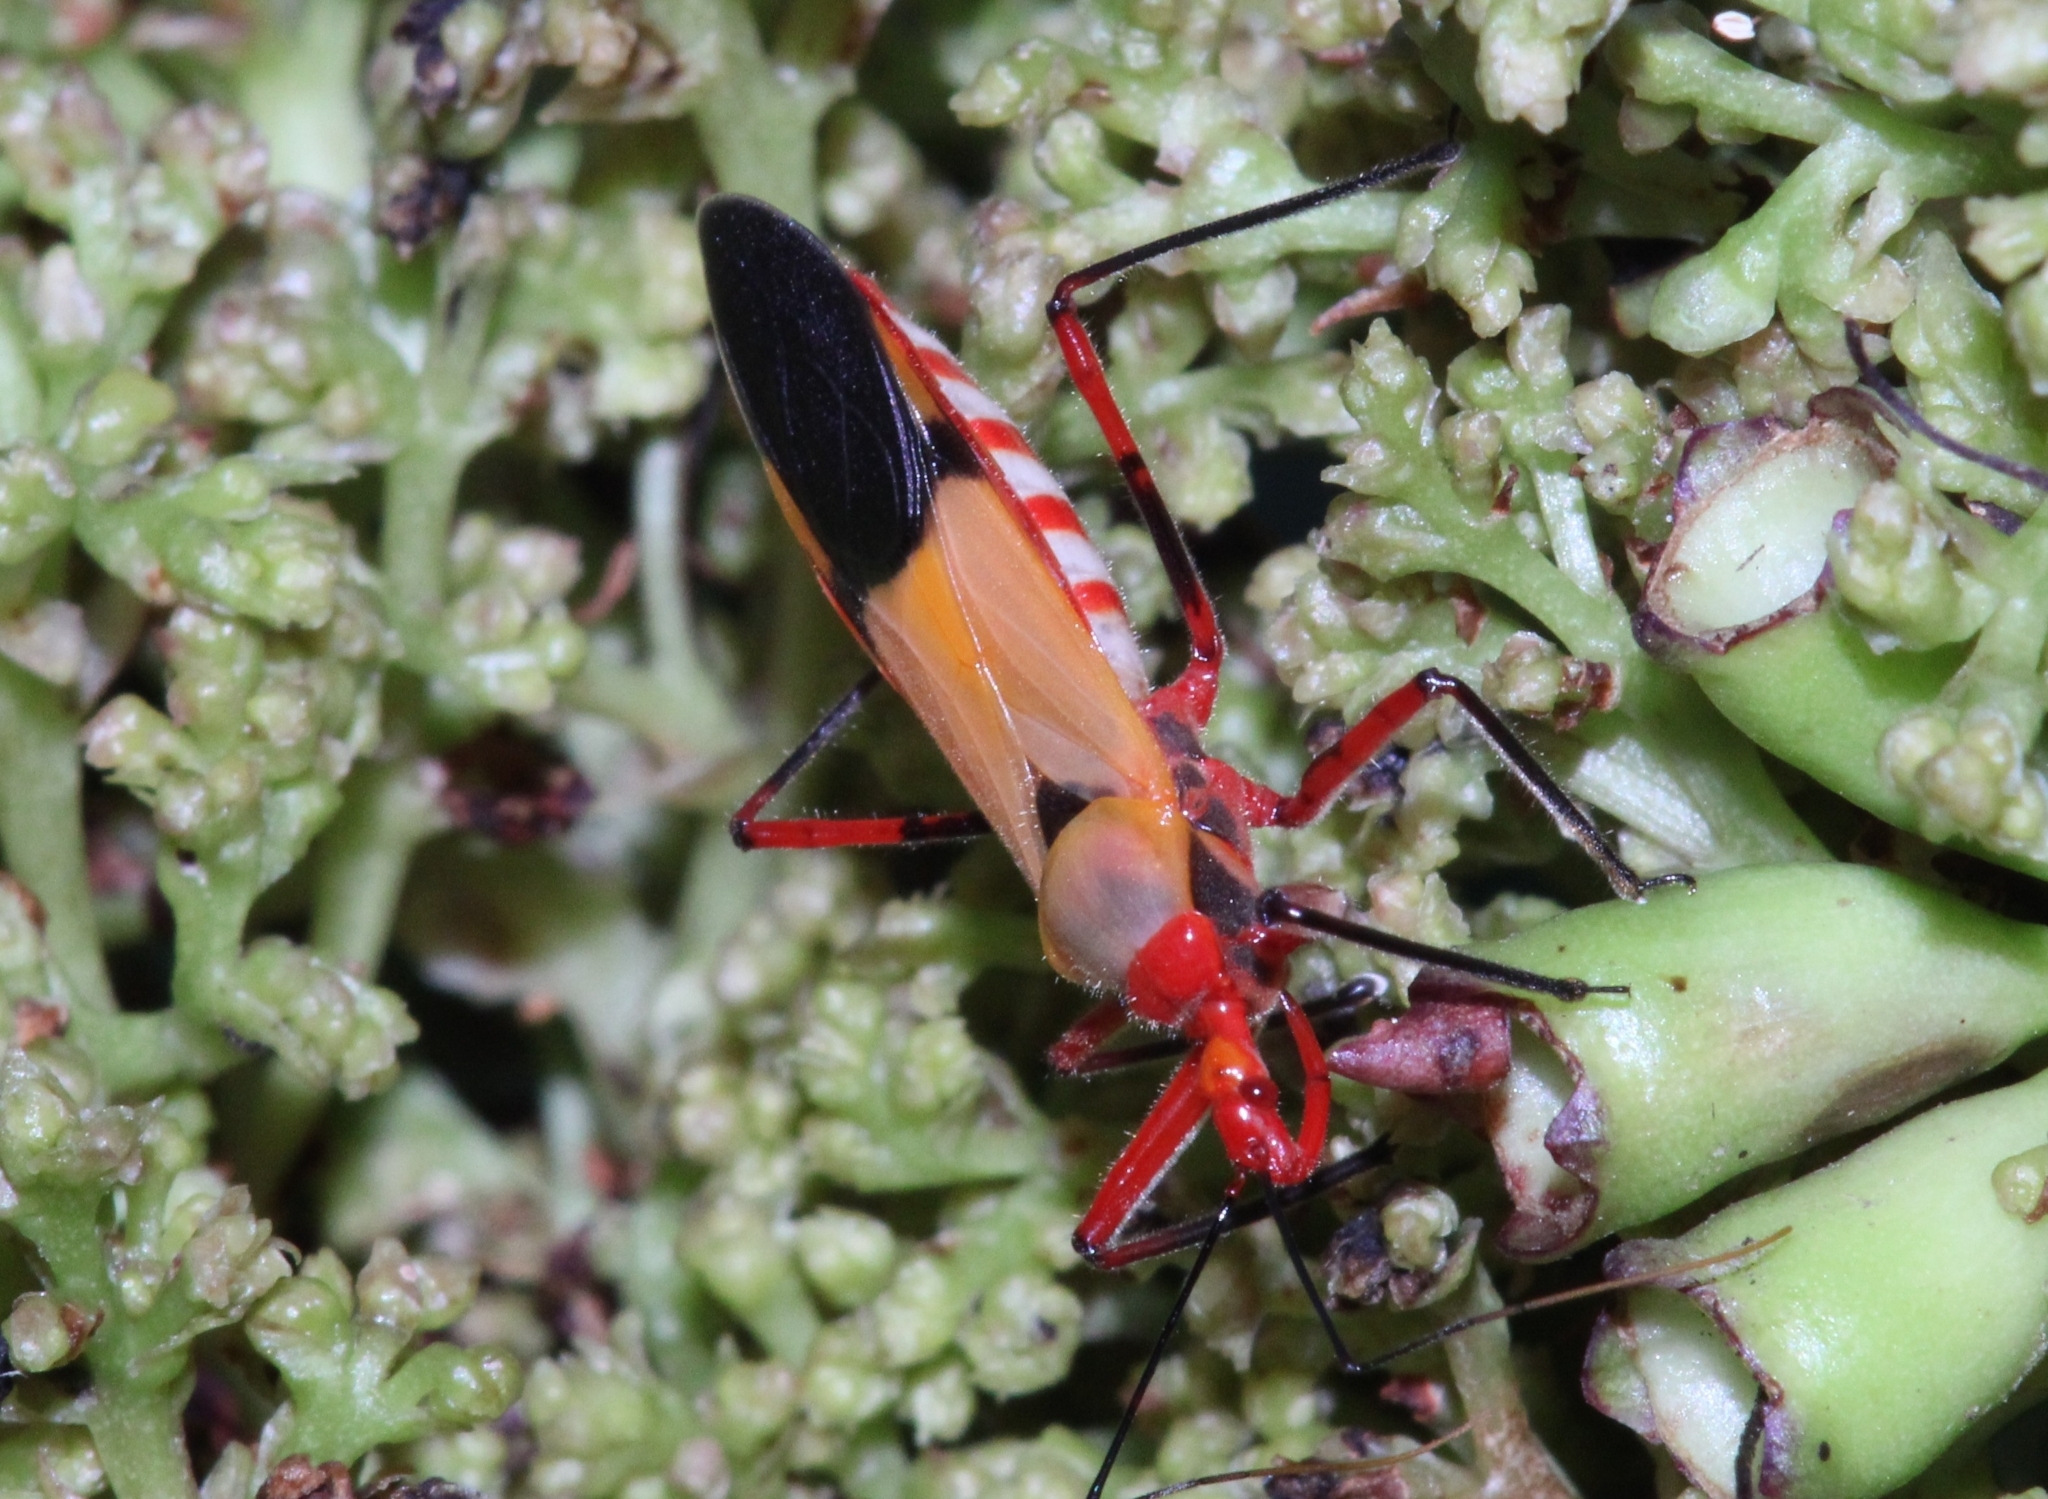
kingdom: Animalia
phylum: Arthropoda
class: Insecta
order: Hemiptera
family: Reduviidae
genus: Pseudophonoctonus
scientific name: Pseudophonoctonus formosus
